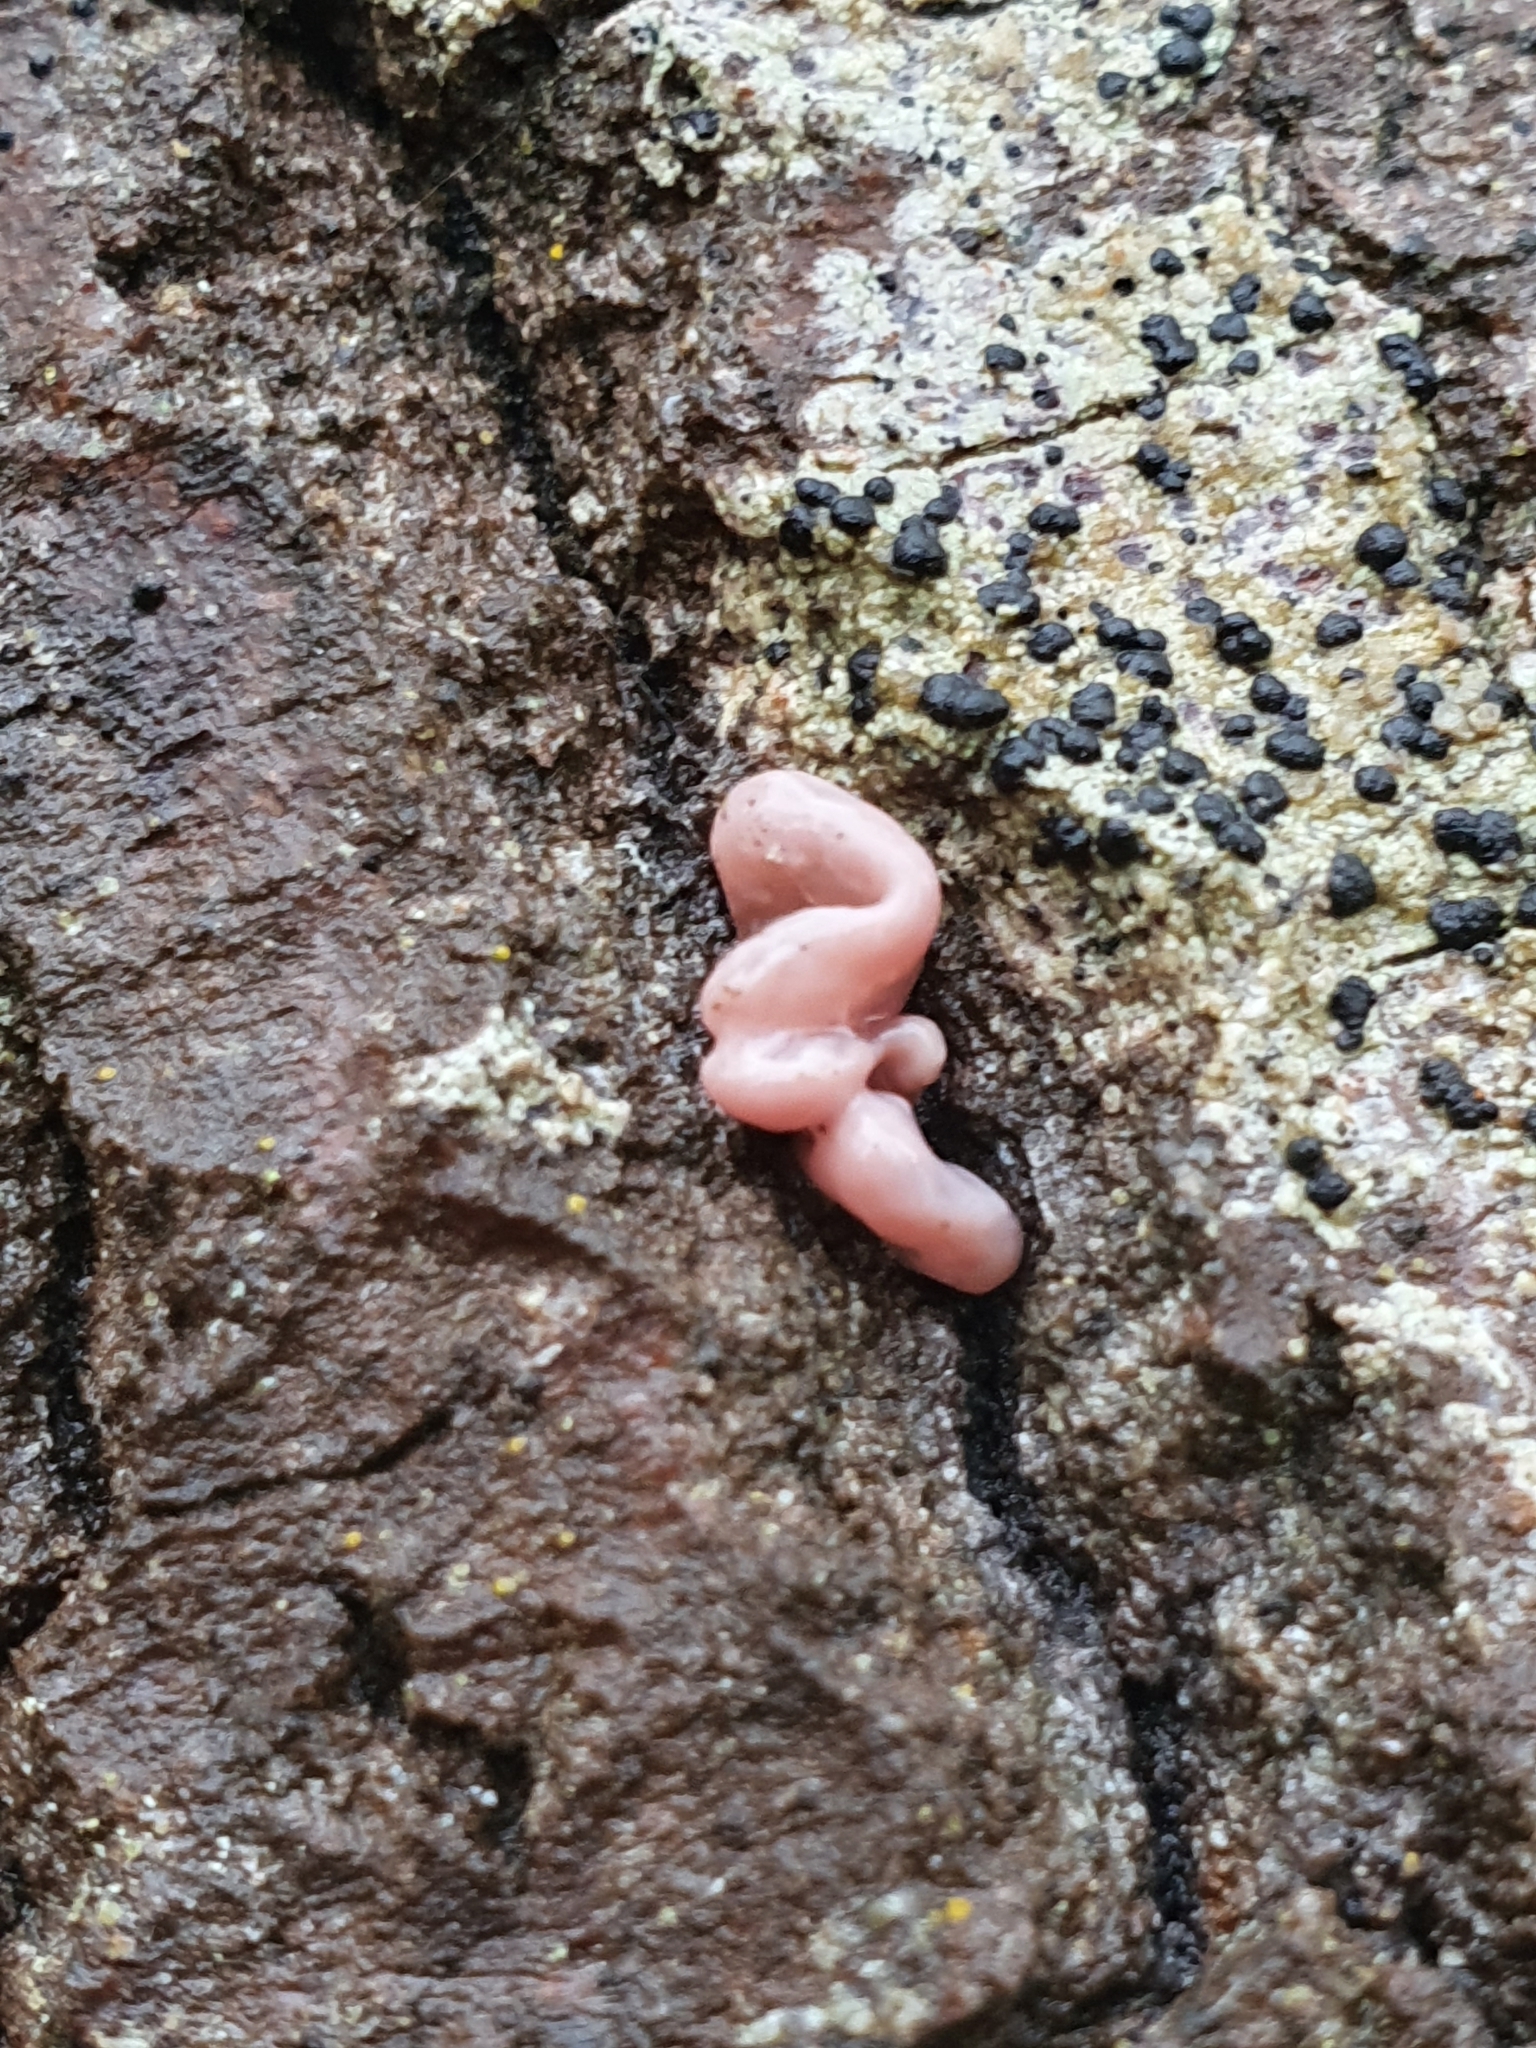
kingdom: Fungi
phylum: Ascomycota
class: Leotiomycetes
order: Helotiales
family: Gelatinodiscaceae
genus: Ascocoryne
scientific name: Ascocoryne sarcoides
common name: Purple jellydisc
